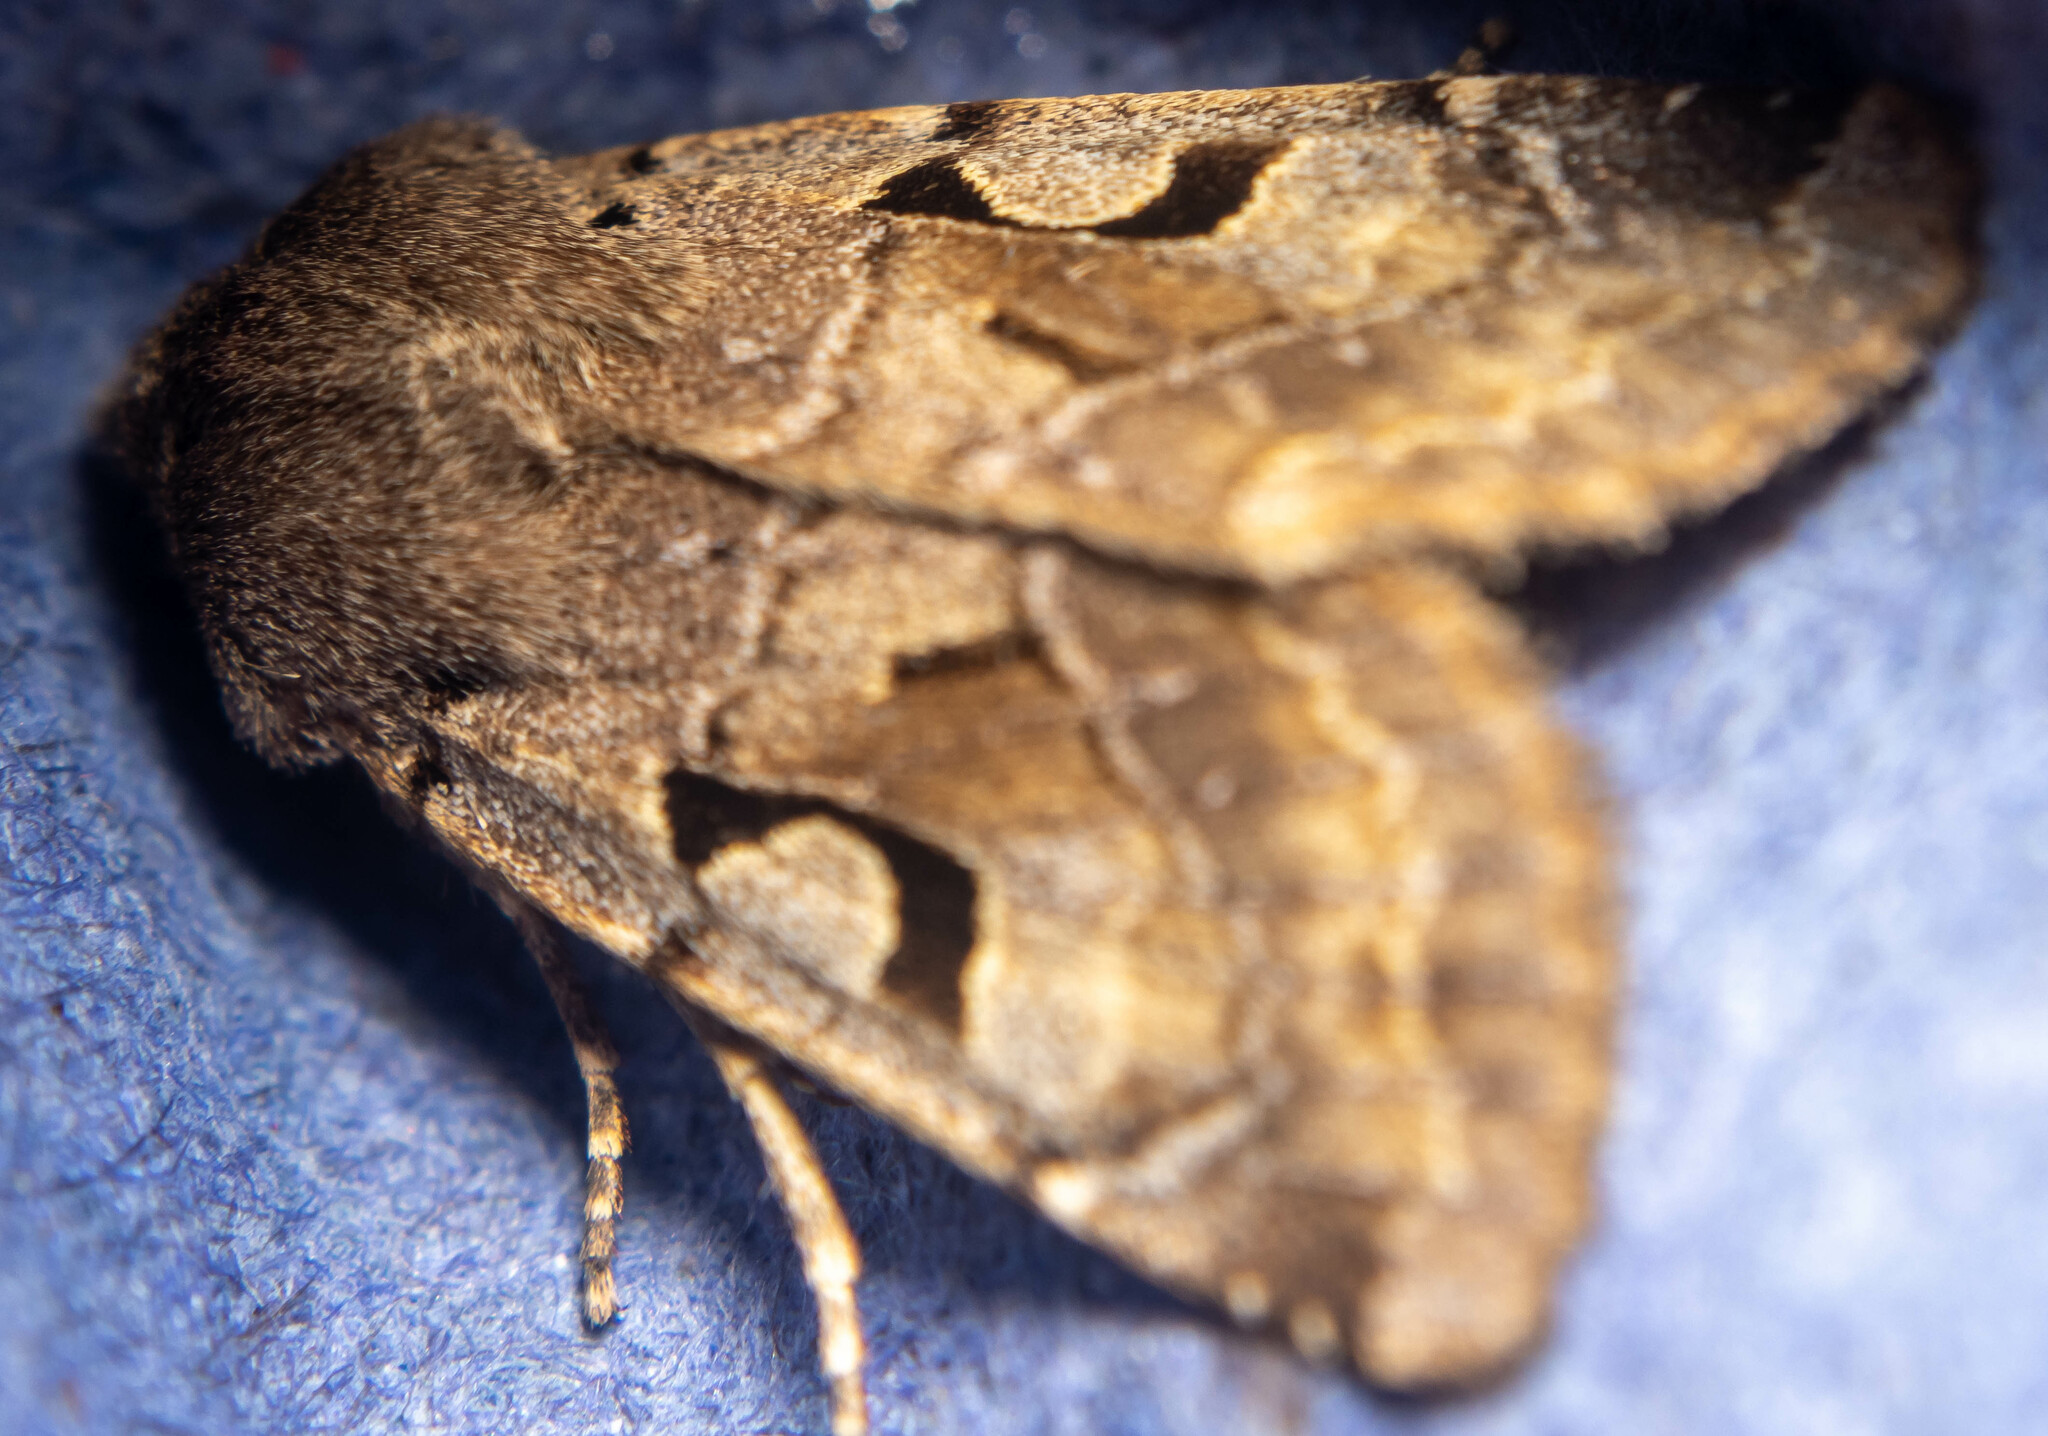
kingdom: Animalia
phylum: Arthropoda
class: Insecta
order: Lepidoptera
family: Noctuidae
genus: Orthosia
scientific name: Orthosia gothica
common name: Hebrew character
